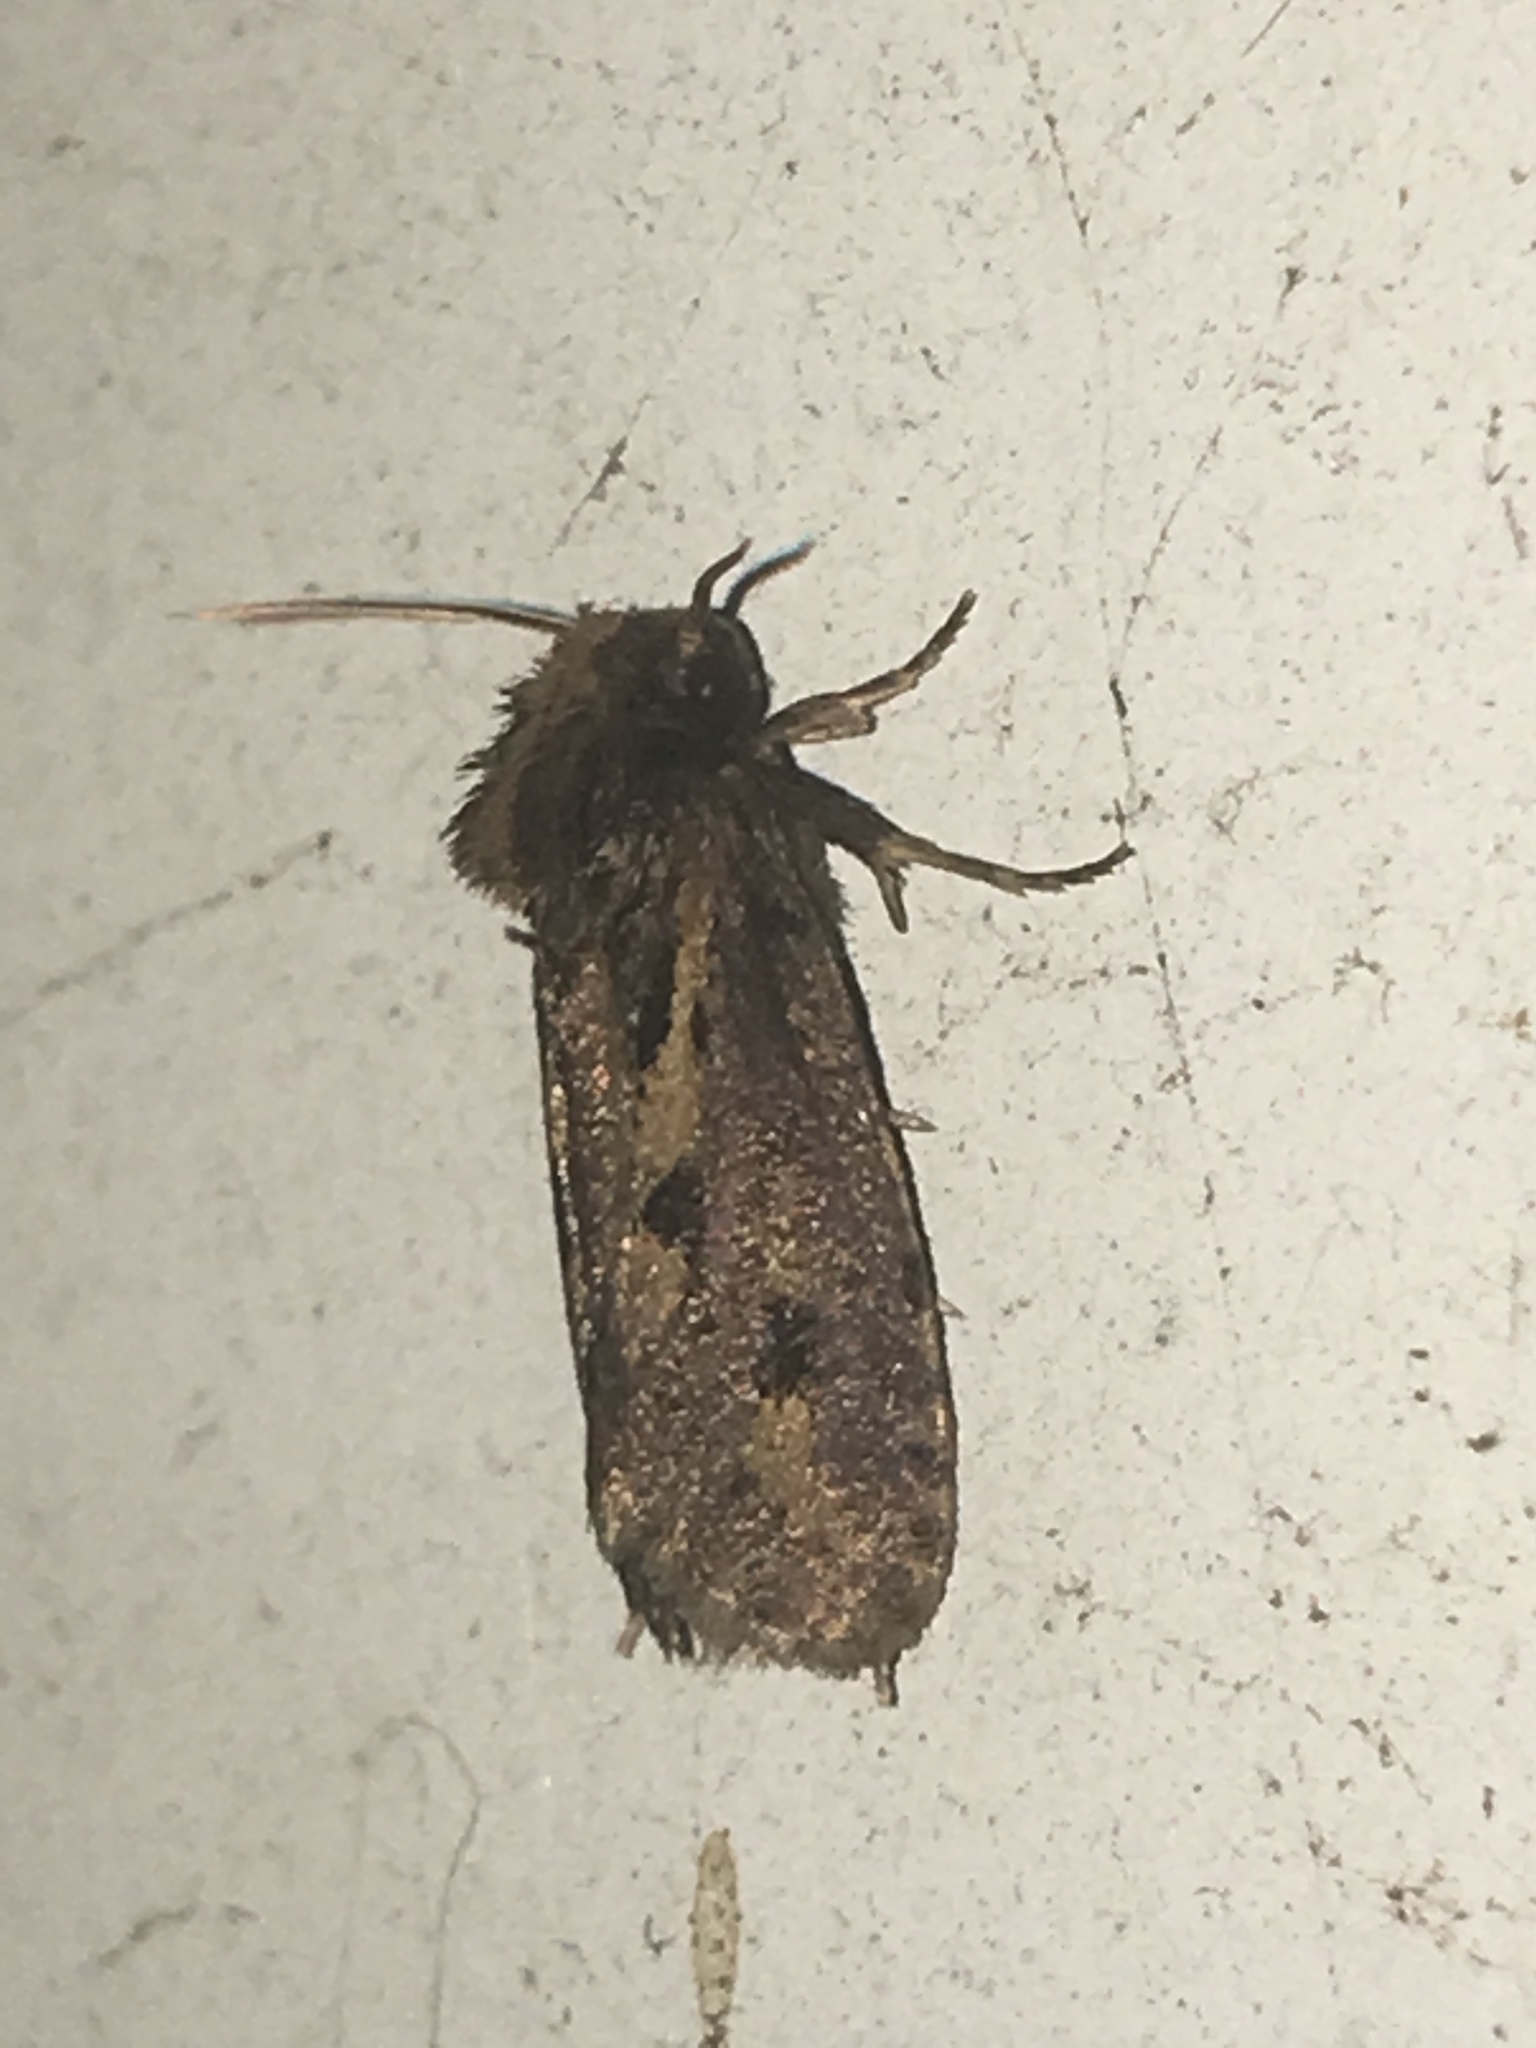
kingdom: Animalia
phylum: Arthropoda
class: Insecta
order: Lepidoptera
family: Tineidae
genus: Acrolophus
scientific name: Acrolophus popeanella
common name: Clemens' grass tubeworm moth
